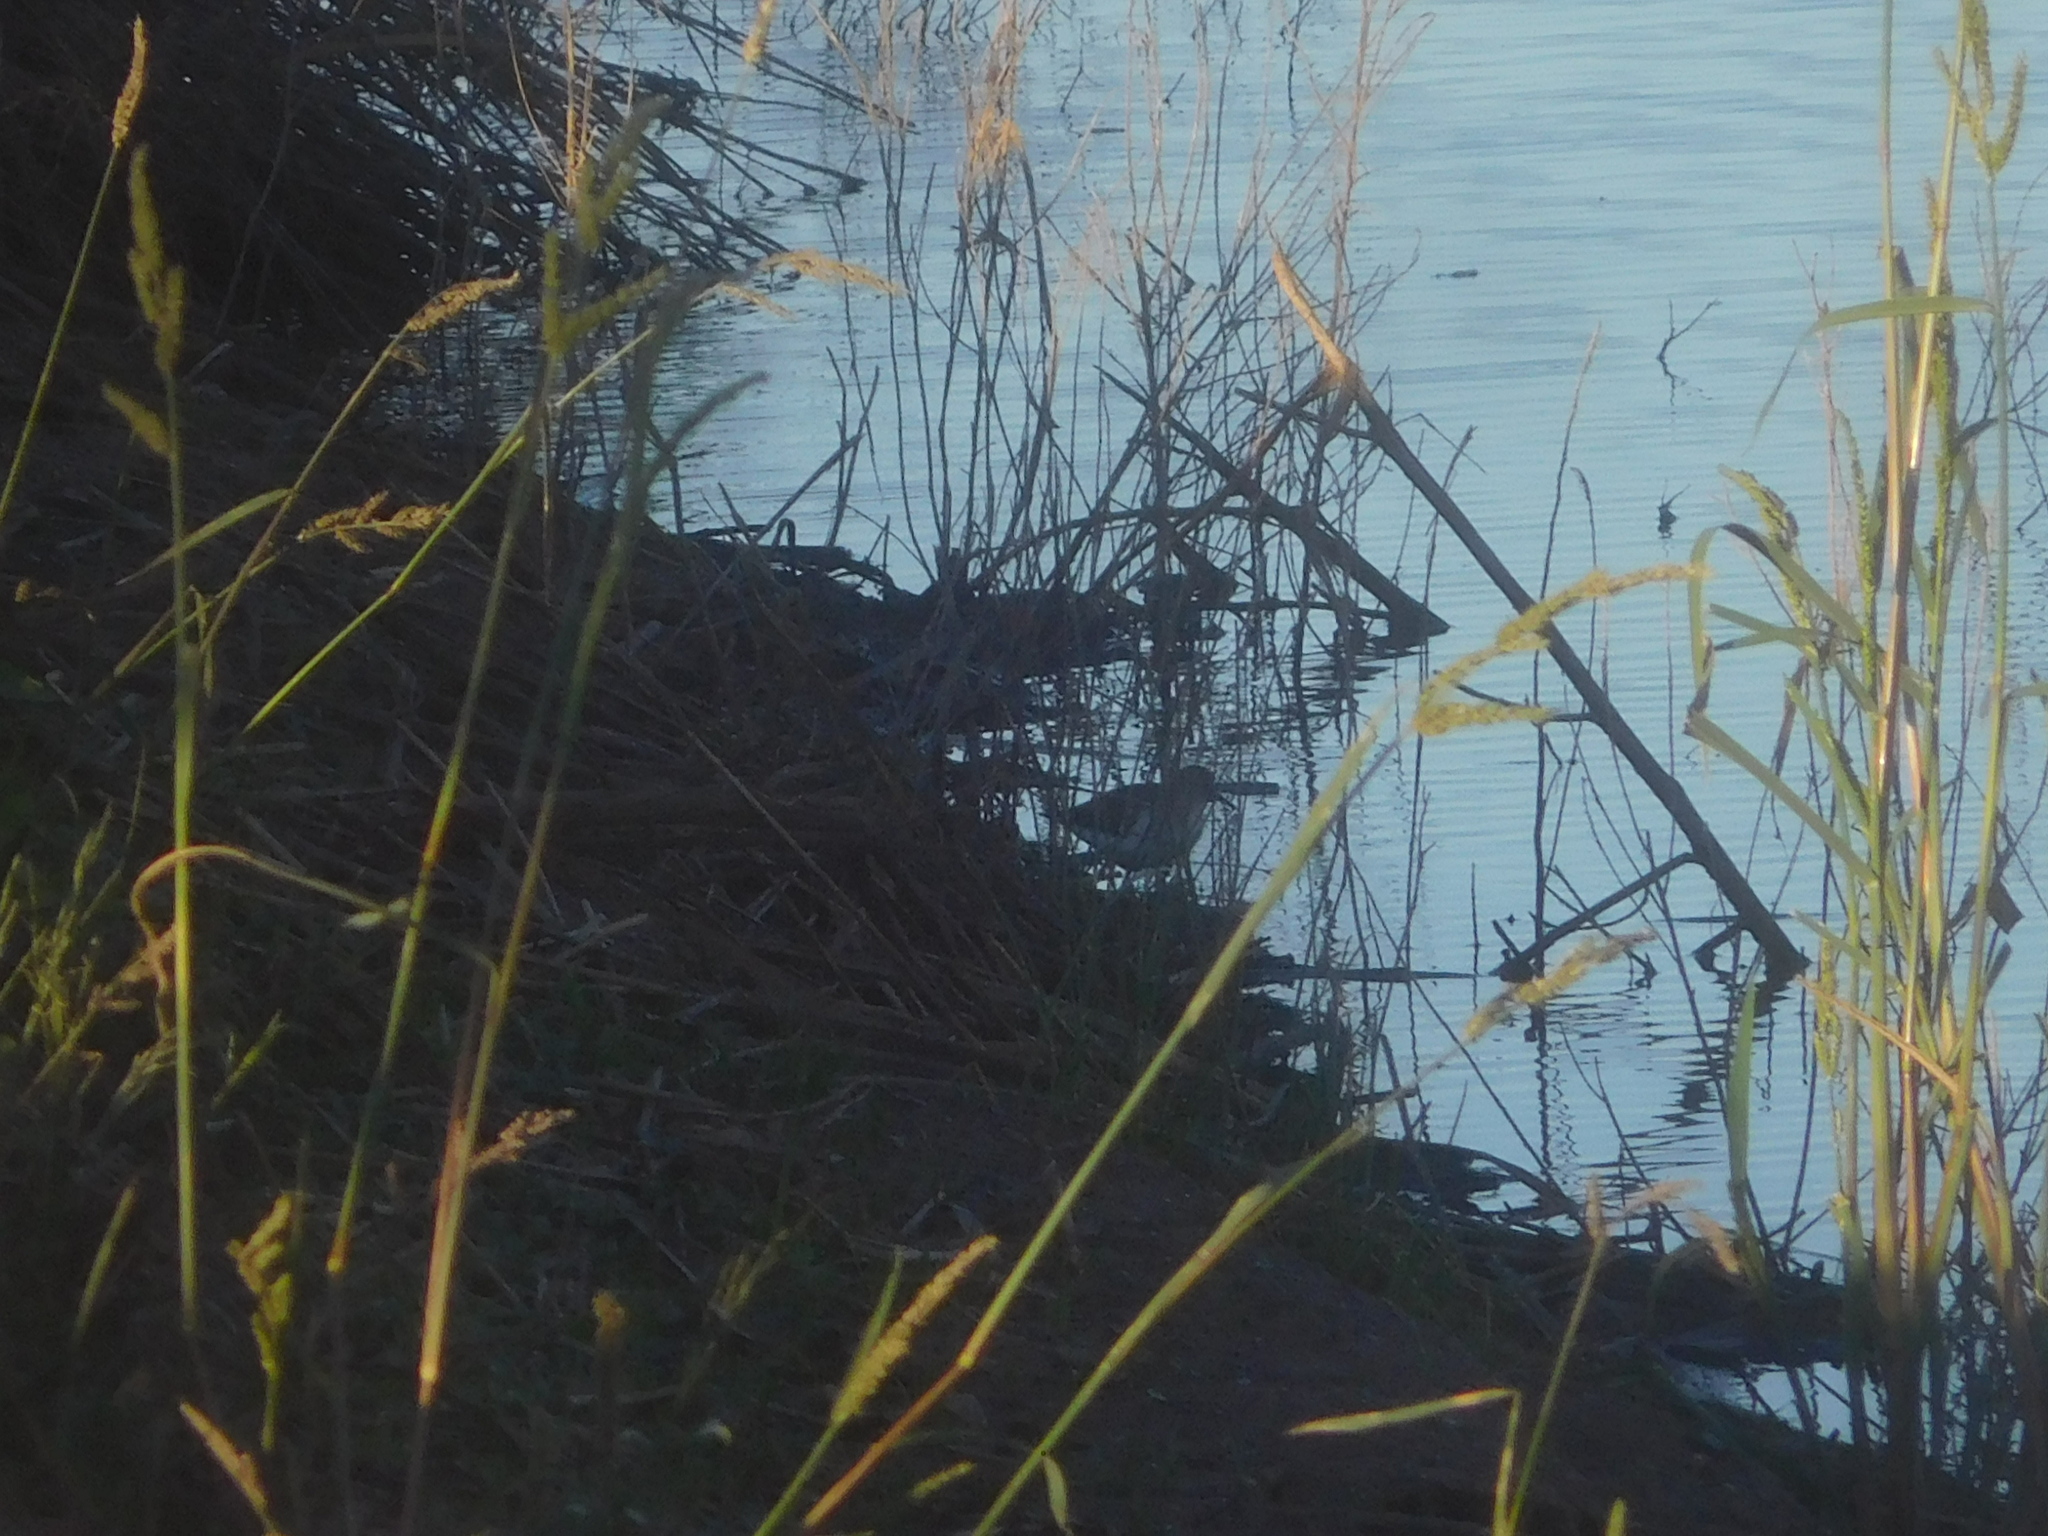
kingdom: Animalia
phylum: Chordata
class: Aves
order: Charadriiformes
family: Scolopacidae
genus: Actitis
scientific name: Actitis macularius
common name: Spotted sandpiper
